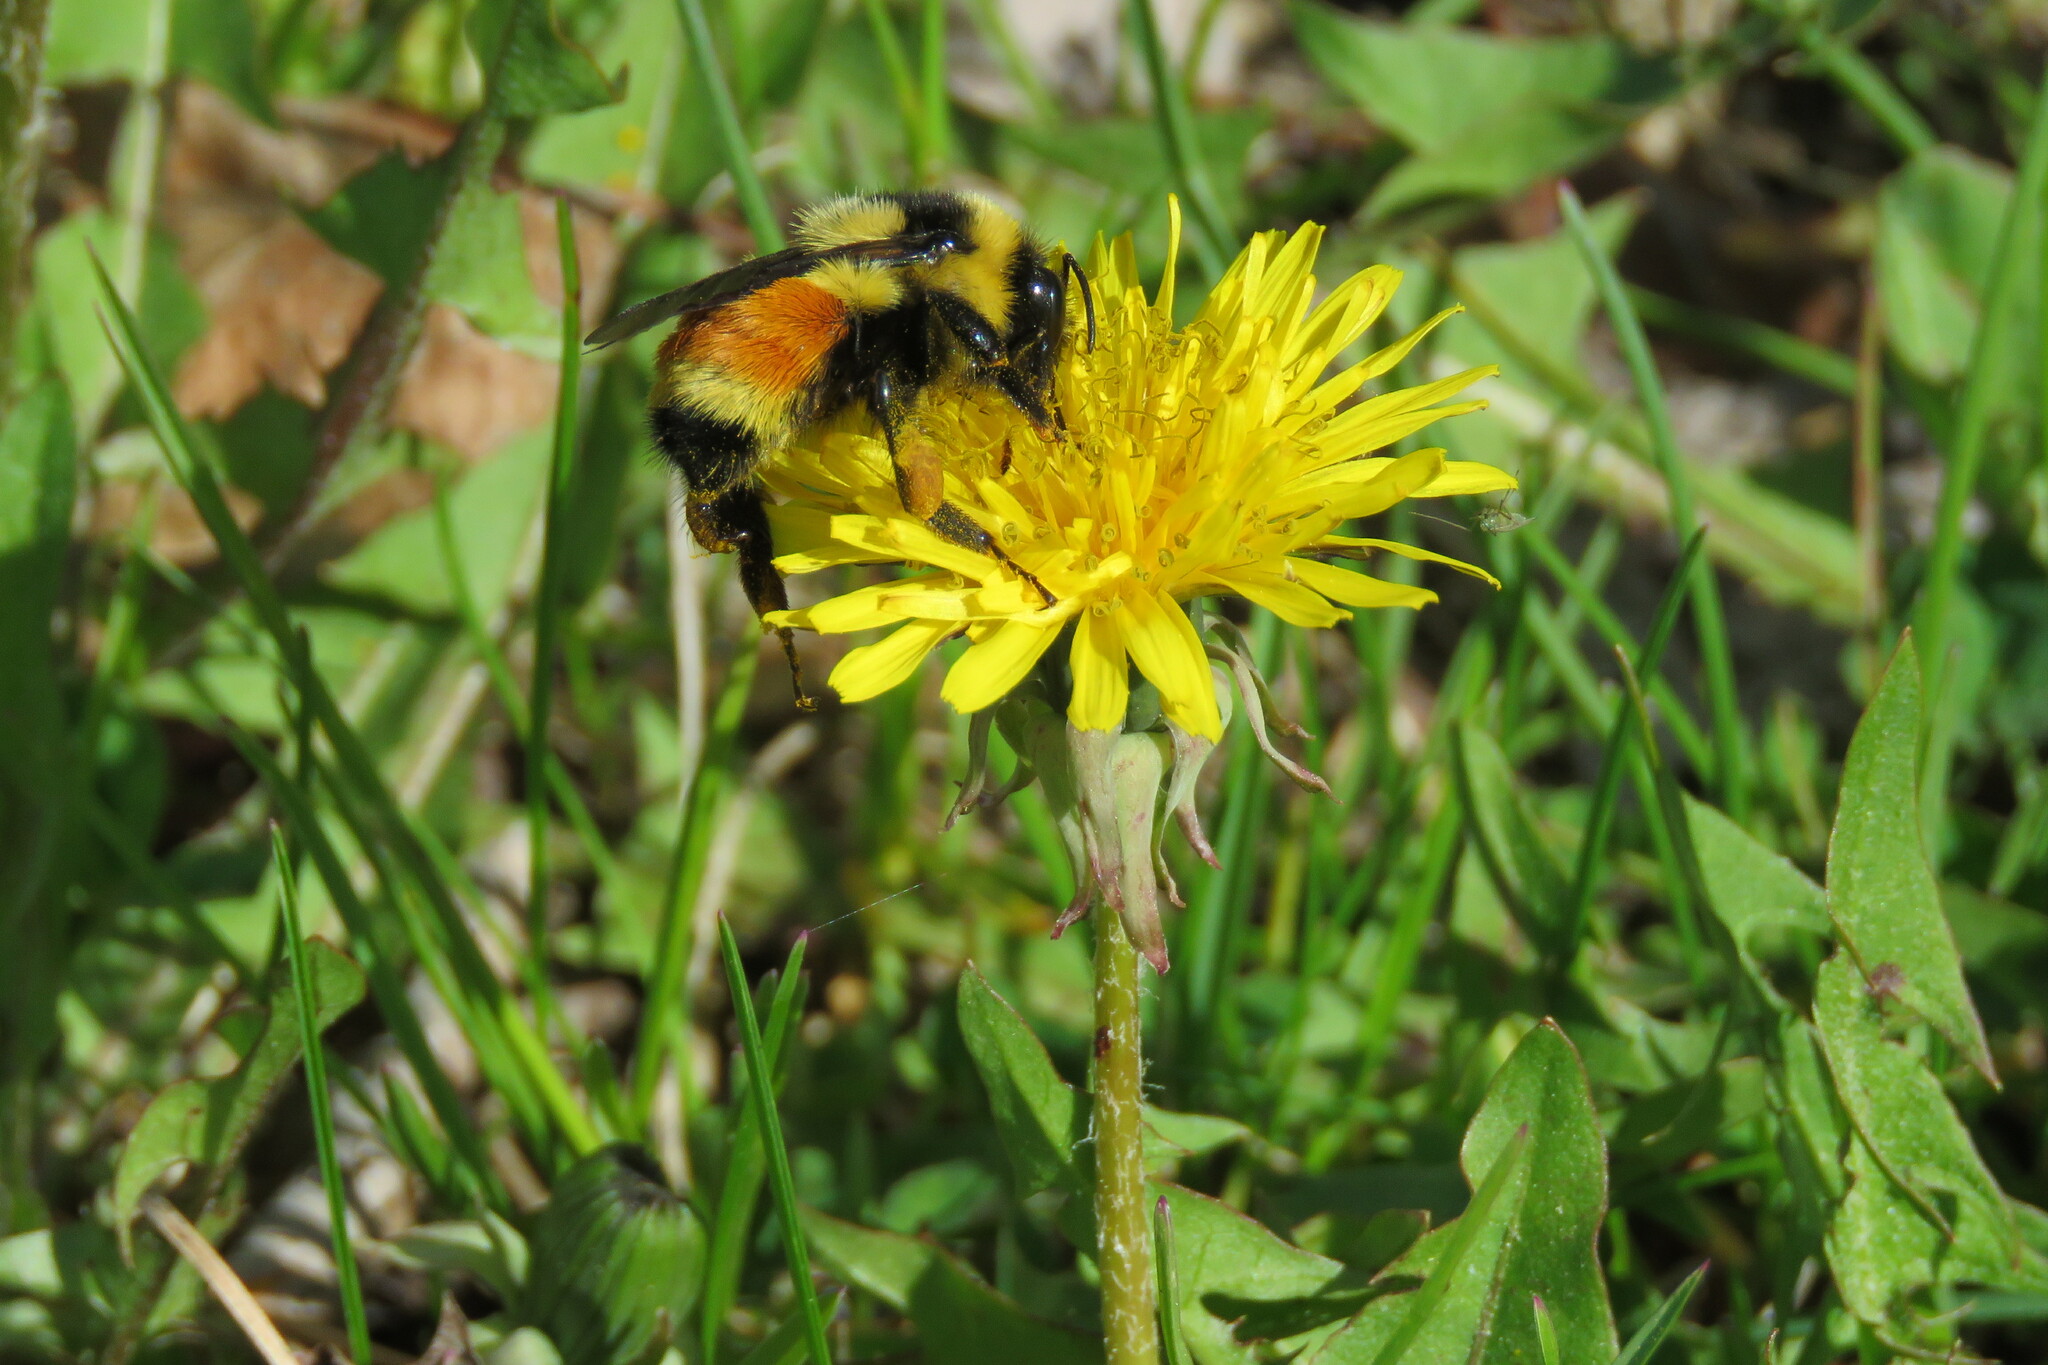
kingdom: Animalia
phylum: Arthropoda
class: Insecta
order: Hymenoptera
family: Apidae
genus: Bombus
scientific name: Bombus ternarius
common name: Tri-colored bumble bee
